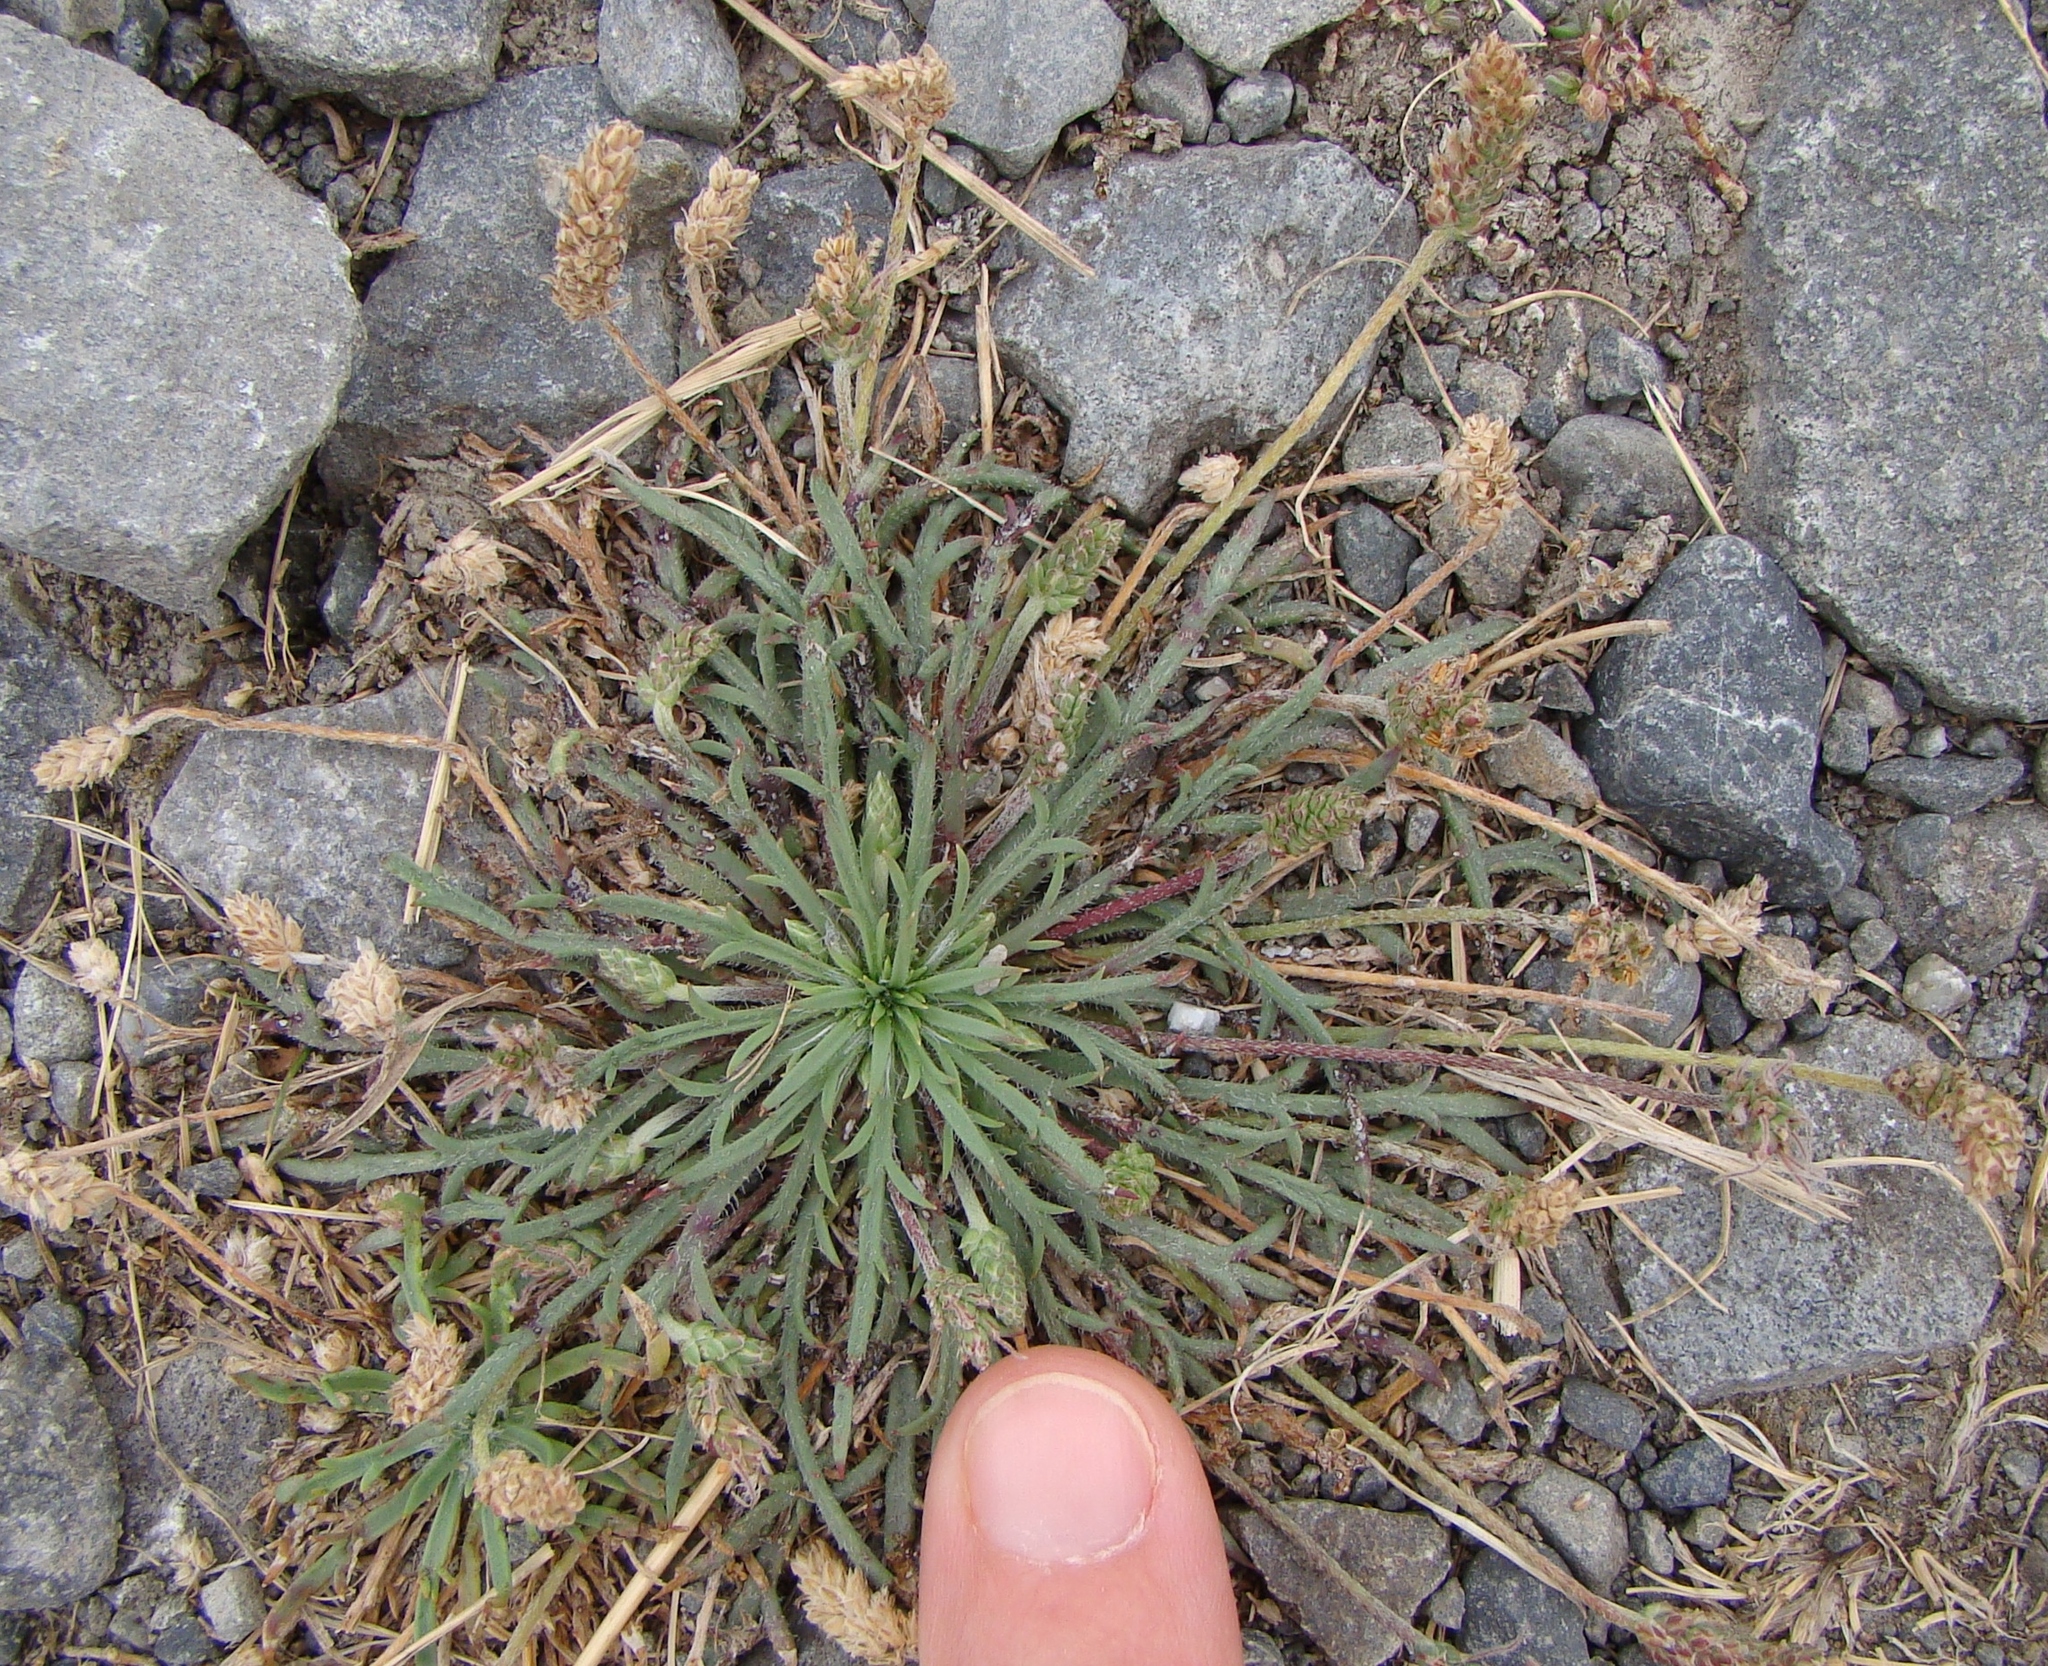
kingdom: Plantae
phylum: Tracheophyta
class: Magnoliopsida
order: Lamiales
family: Plantaginaceae
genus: Plantago
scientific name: Plantago coronopus
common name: Buck's-horn plantain
